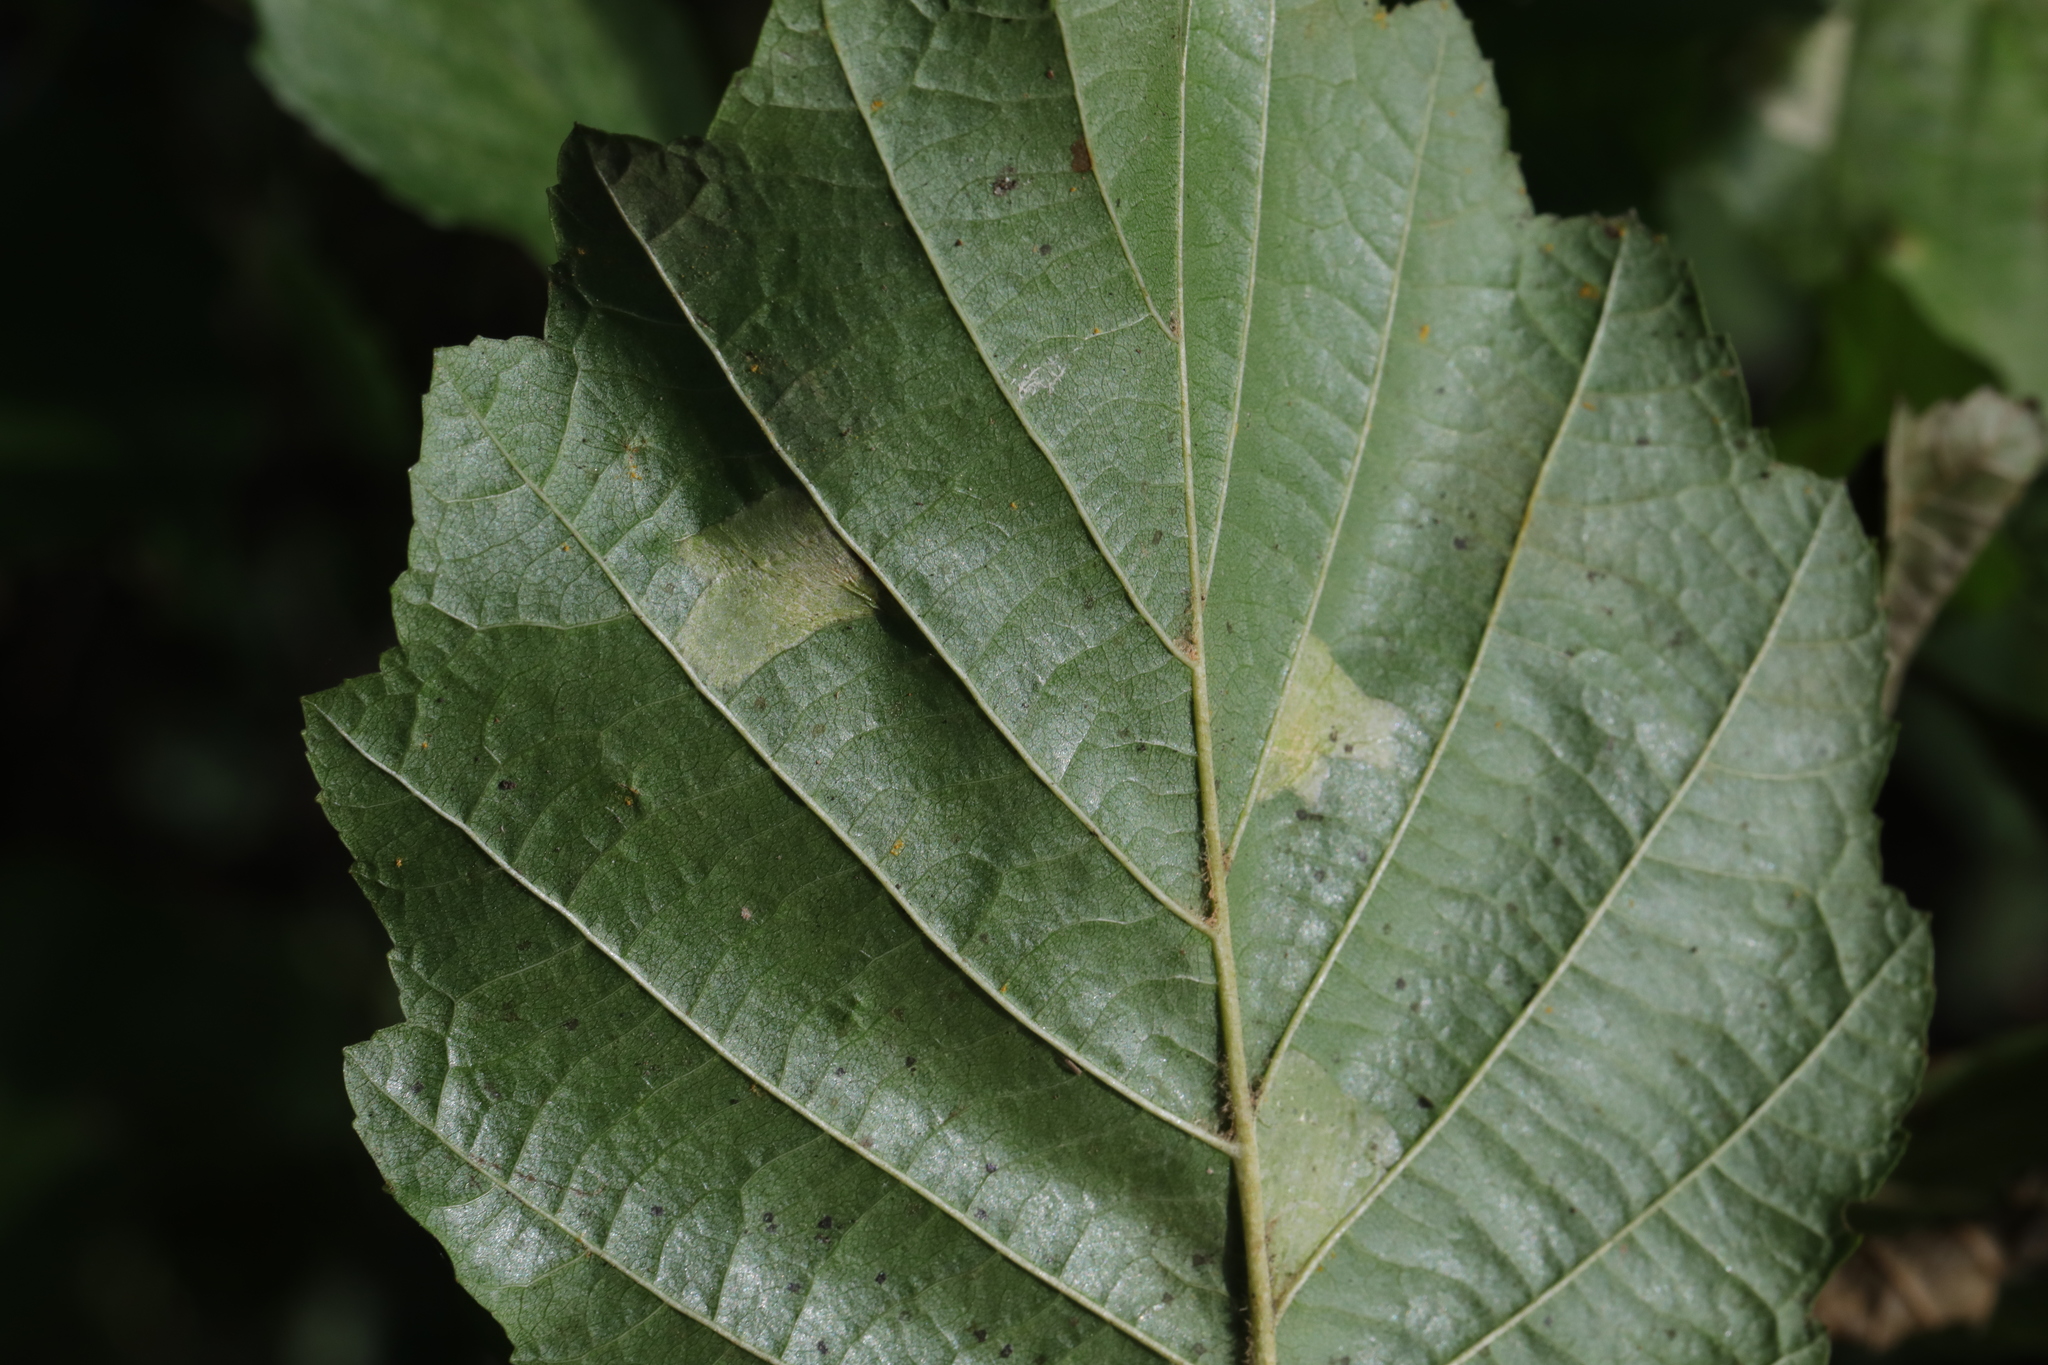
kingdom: Animalia
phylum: Arthropoda
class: Insecta
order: Lepidoptera
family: Gracillariidae
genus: Phyllonorycter
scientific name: Phyllonorycter klemannella
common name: Dark alder midget
